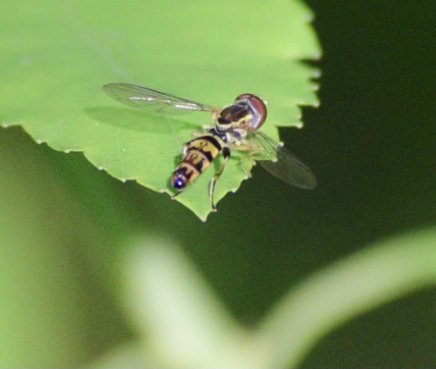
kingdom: Animalia
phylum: Arthropoda
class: Insecta
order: Diptera
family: Syrphidae
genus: Toxomerus
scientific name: Toxomerus geminatus
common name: Eastern calligrapher
